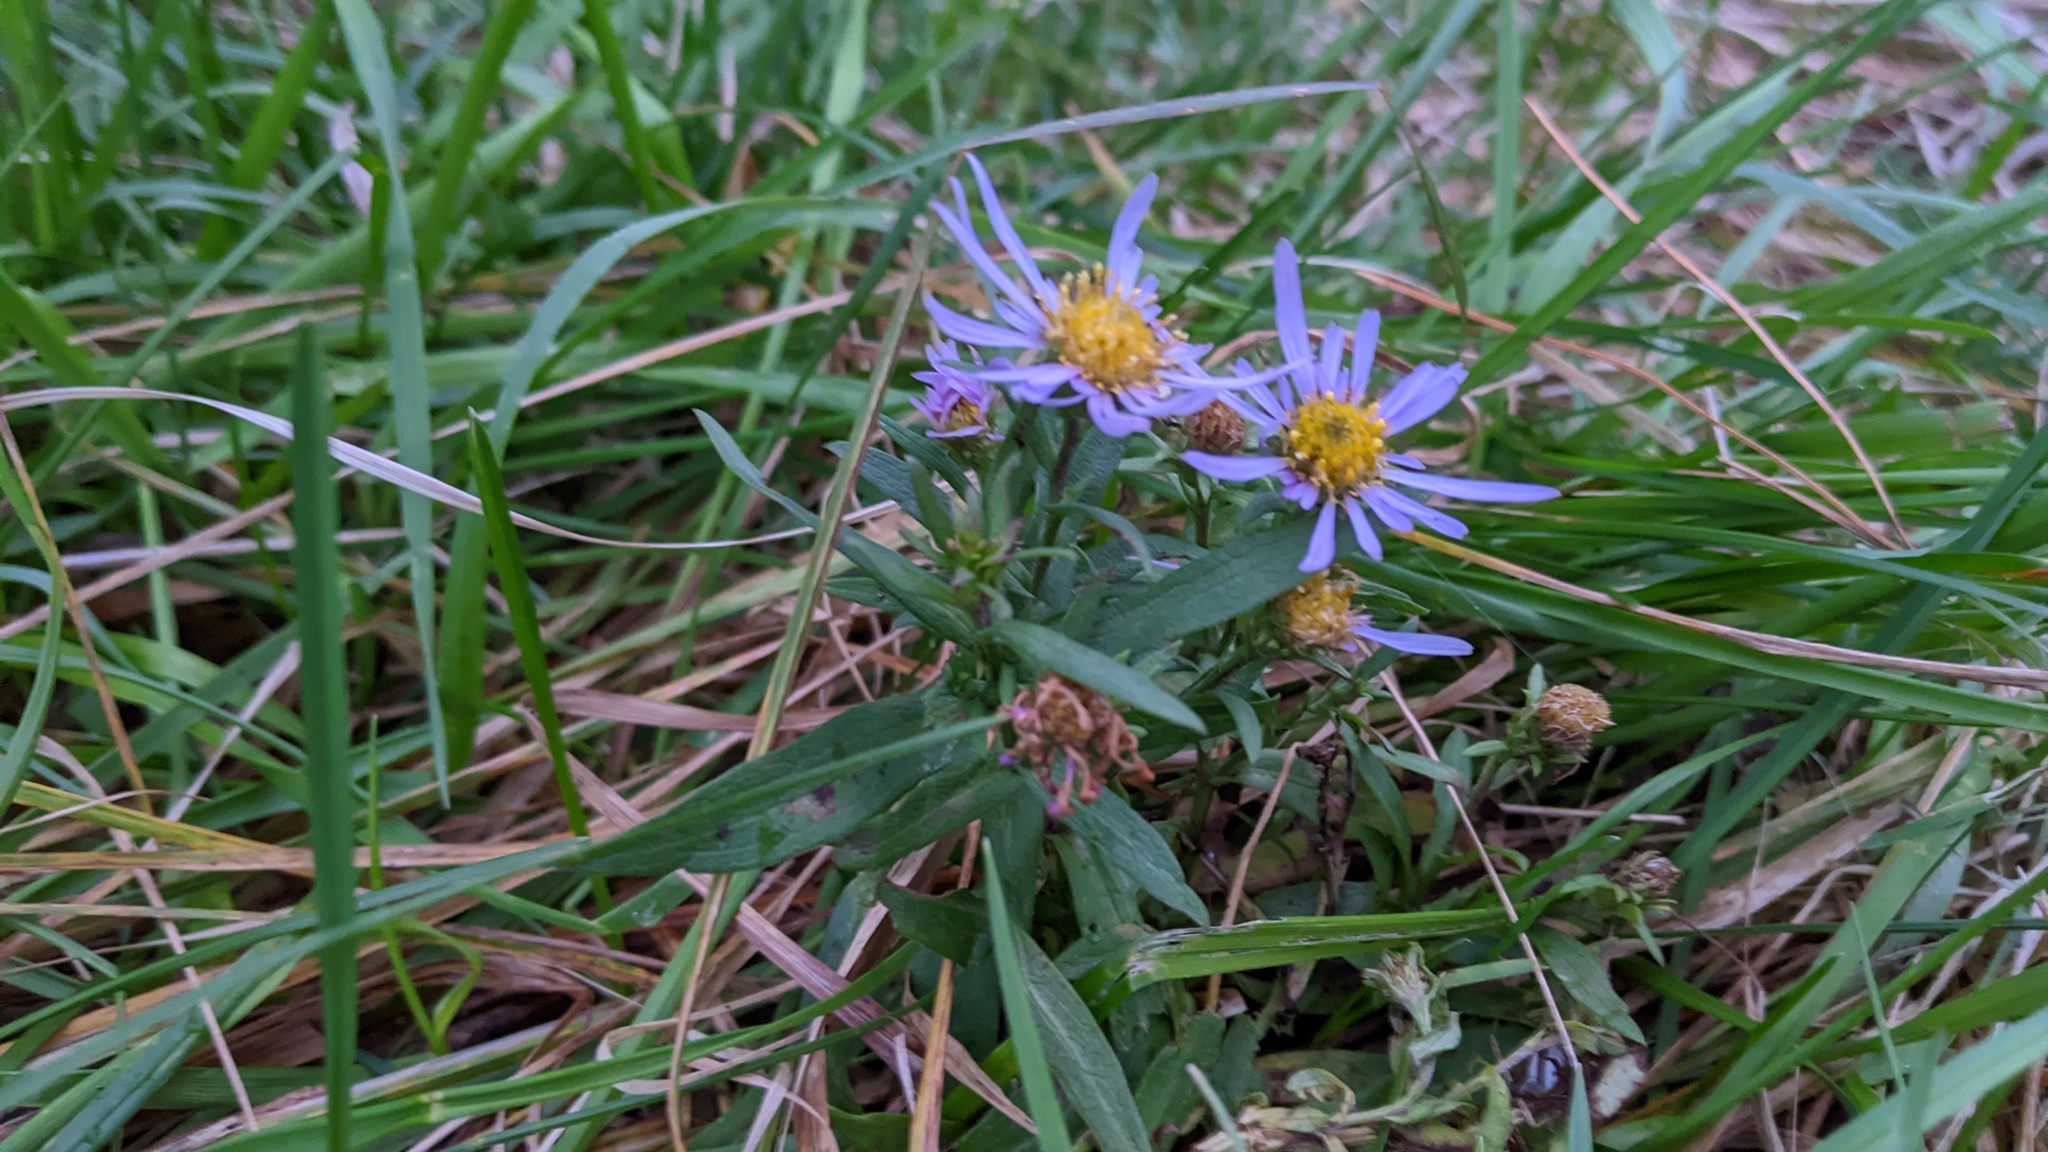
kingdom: Plantae
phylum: Tracheophyta
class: Magnoliopsida
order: Asterales
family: Asteraceae
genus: Symphyotrichum
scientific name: Symphyotrichum novi-belgii
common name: Michaelmas daisy
